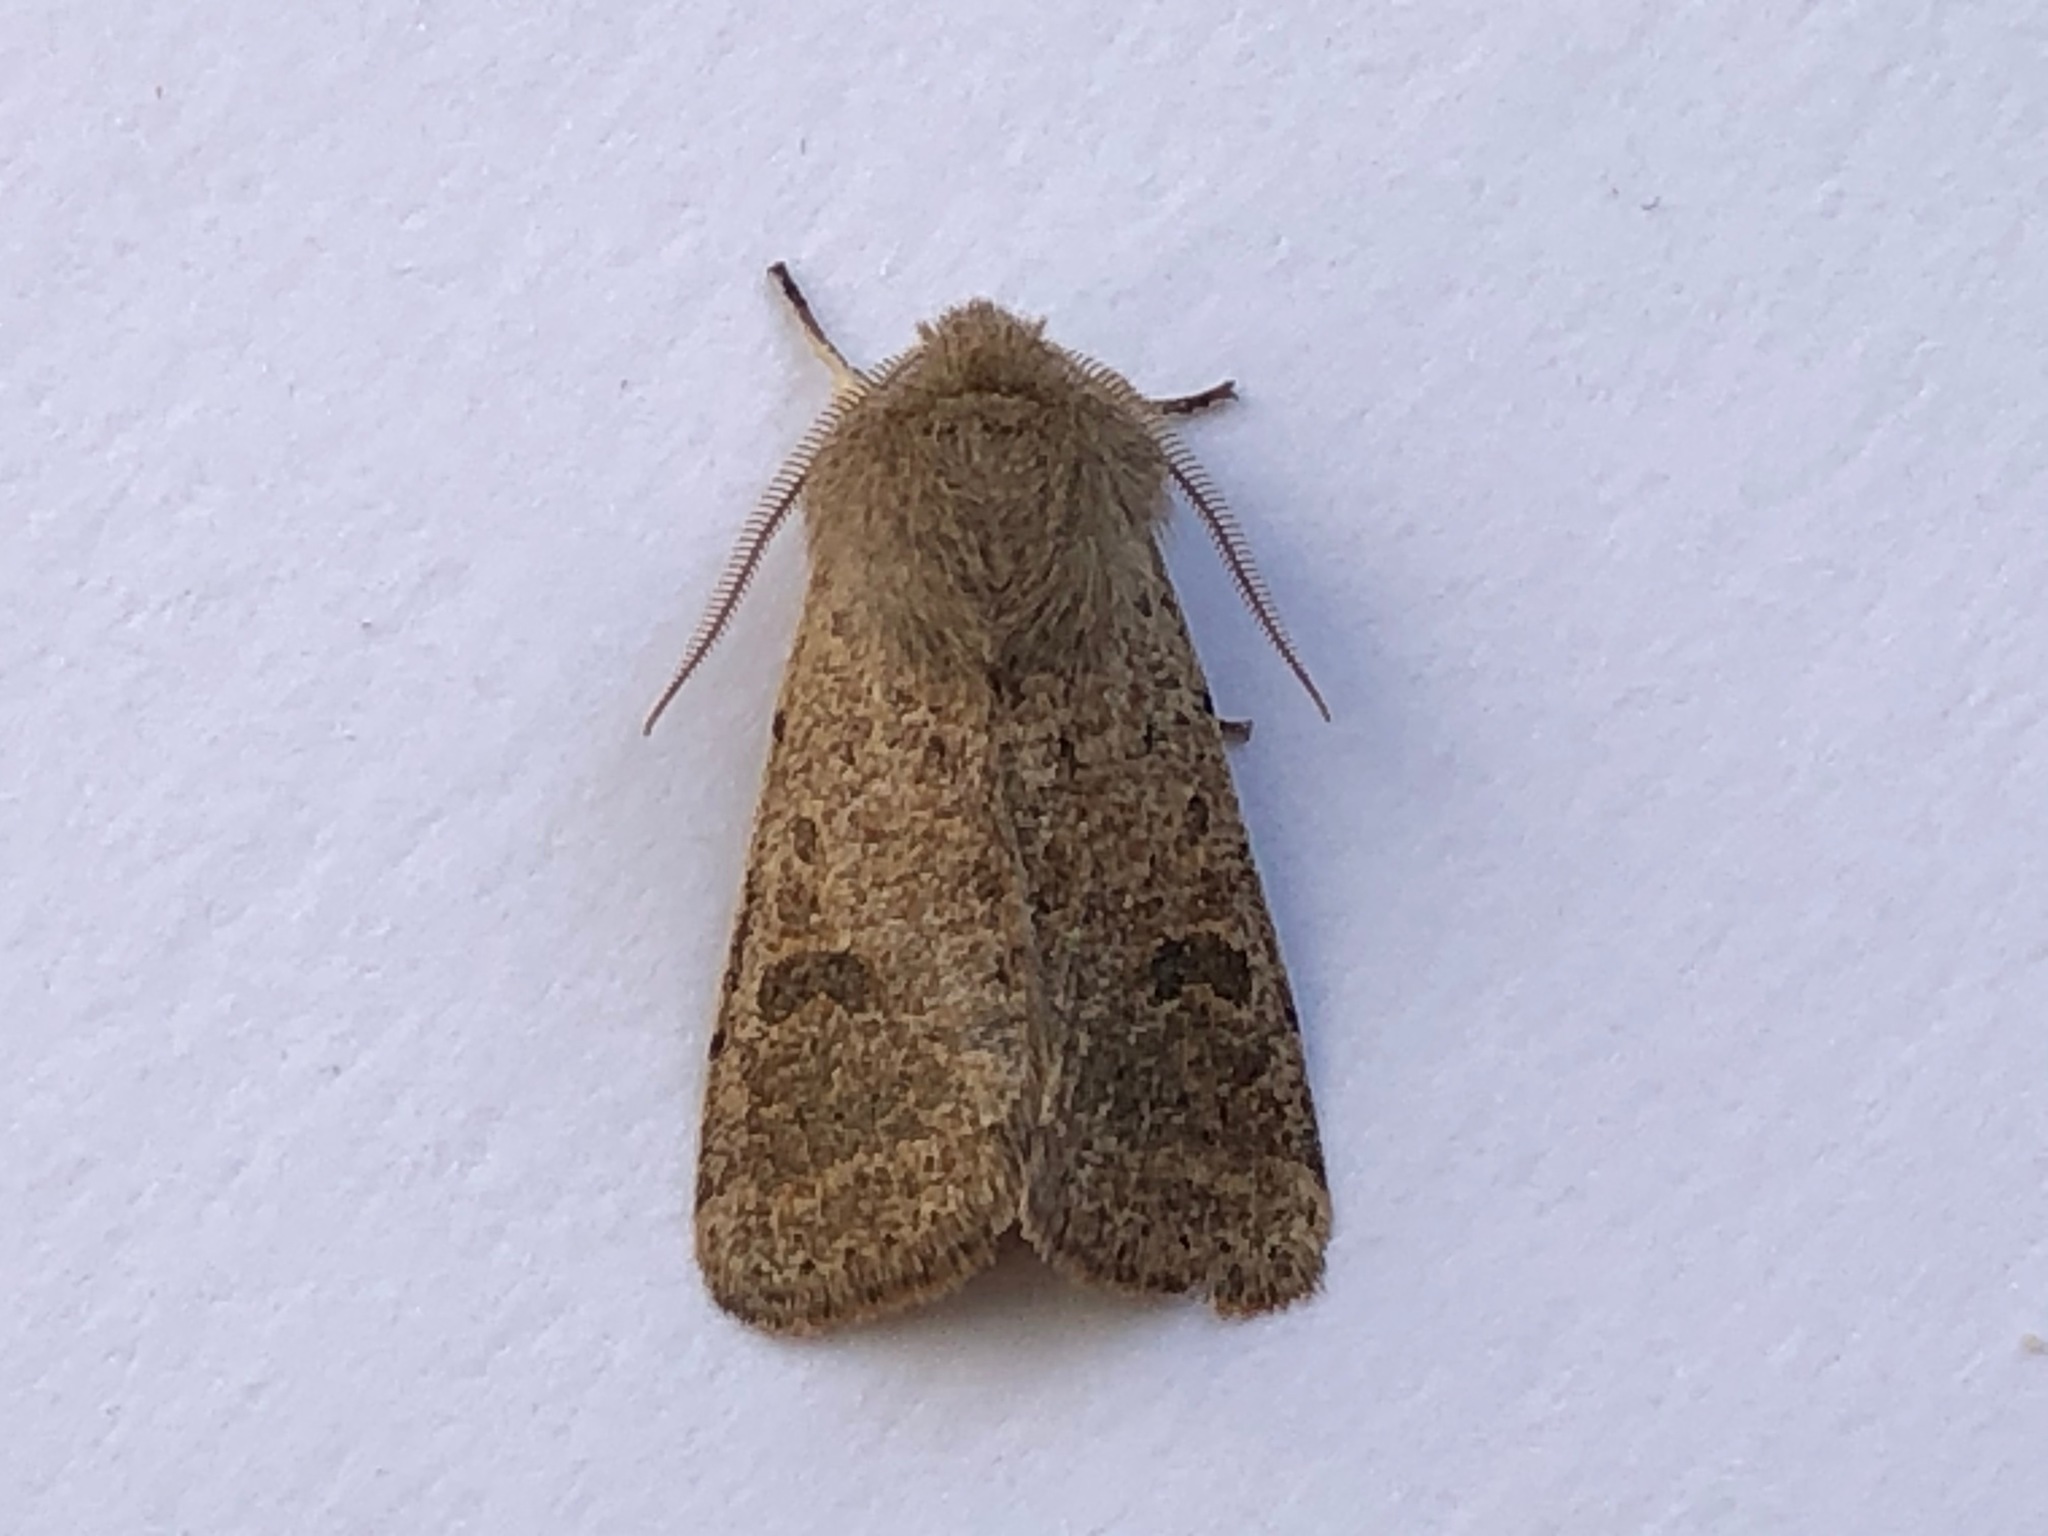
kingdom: Animalia
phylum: Arthropoda
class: Insecta
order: Lepidoptera
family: Noctuidae
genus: Orthosia
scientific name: Orthosia cruda
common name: Small quaker
